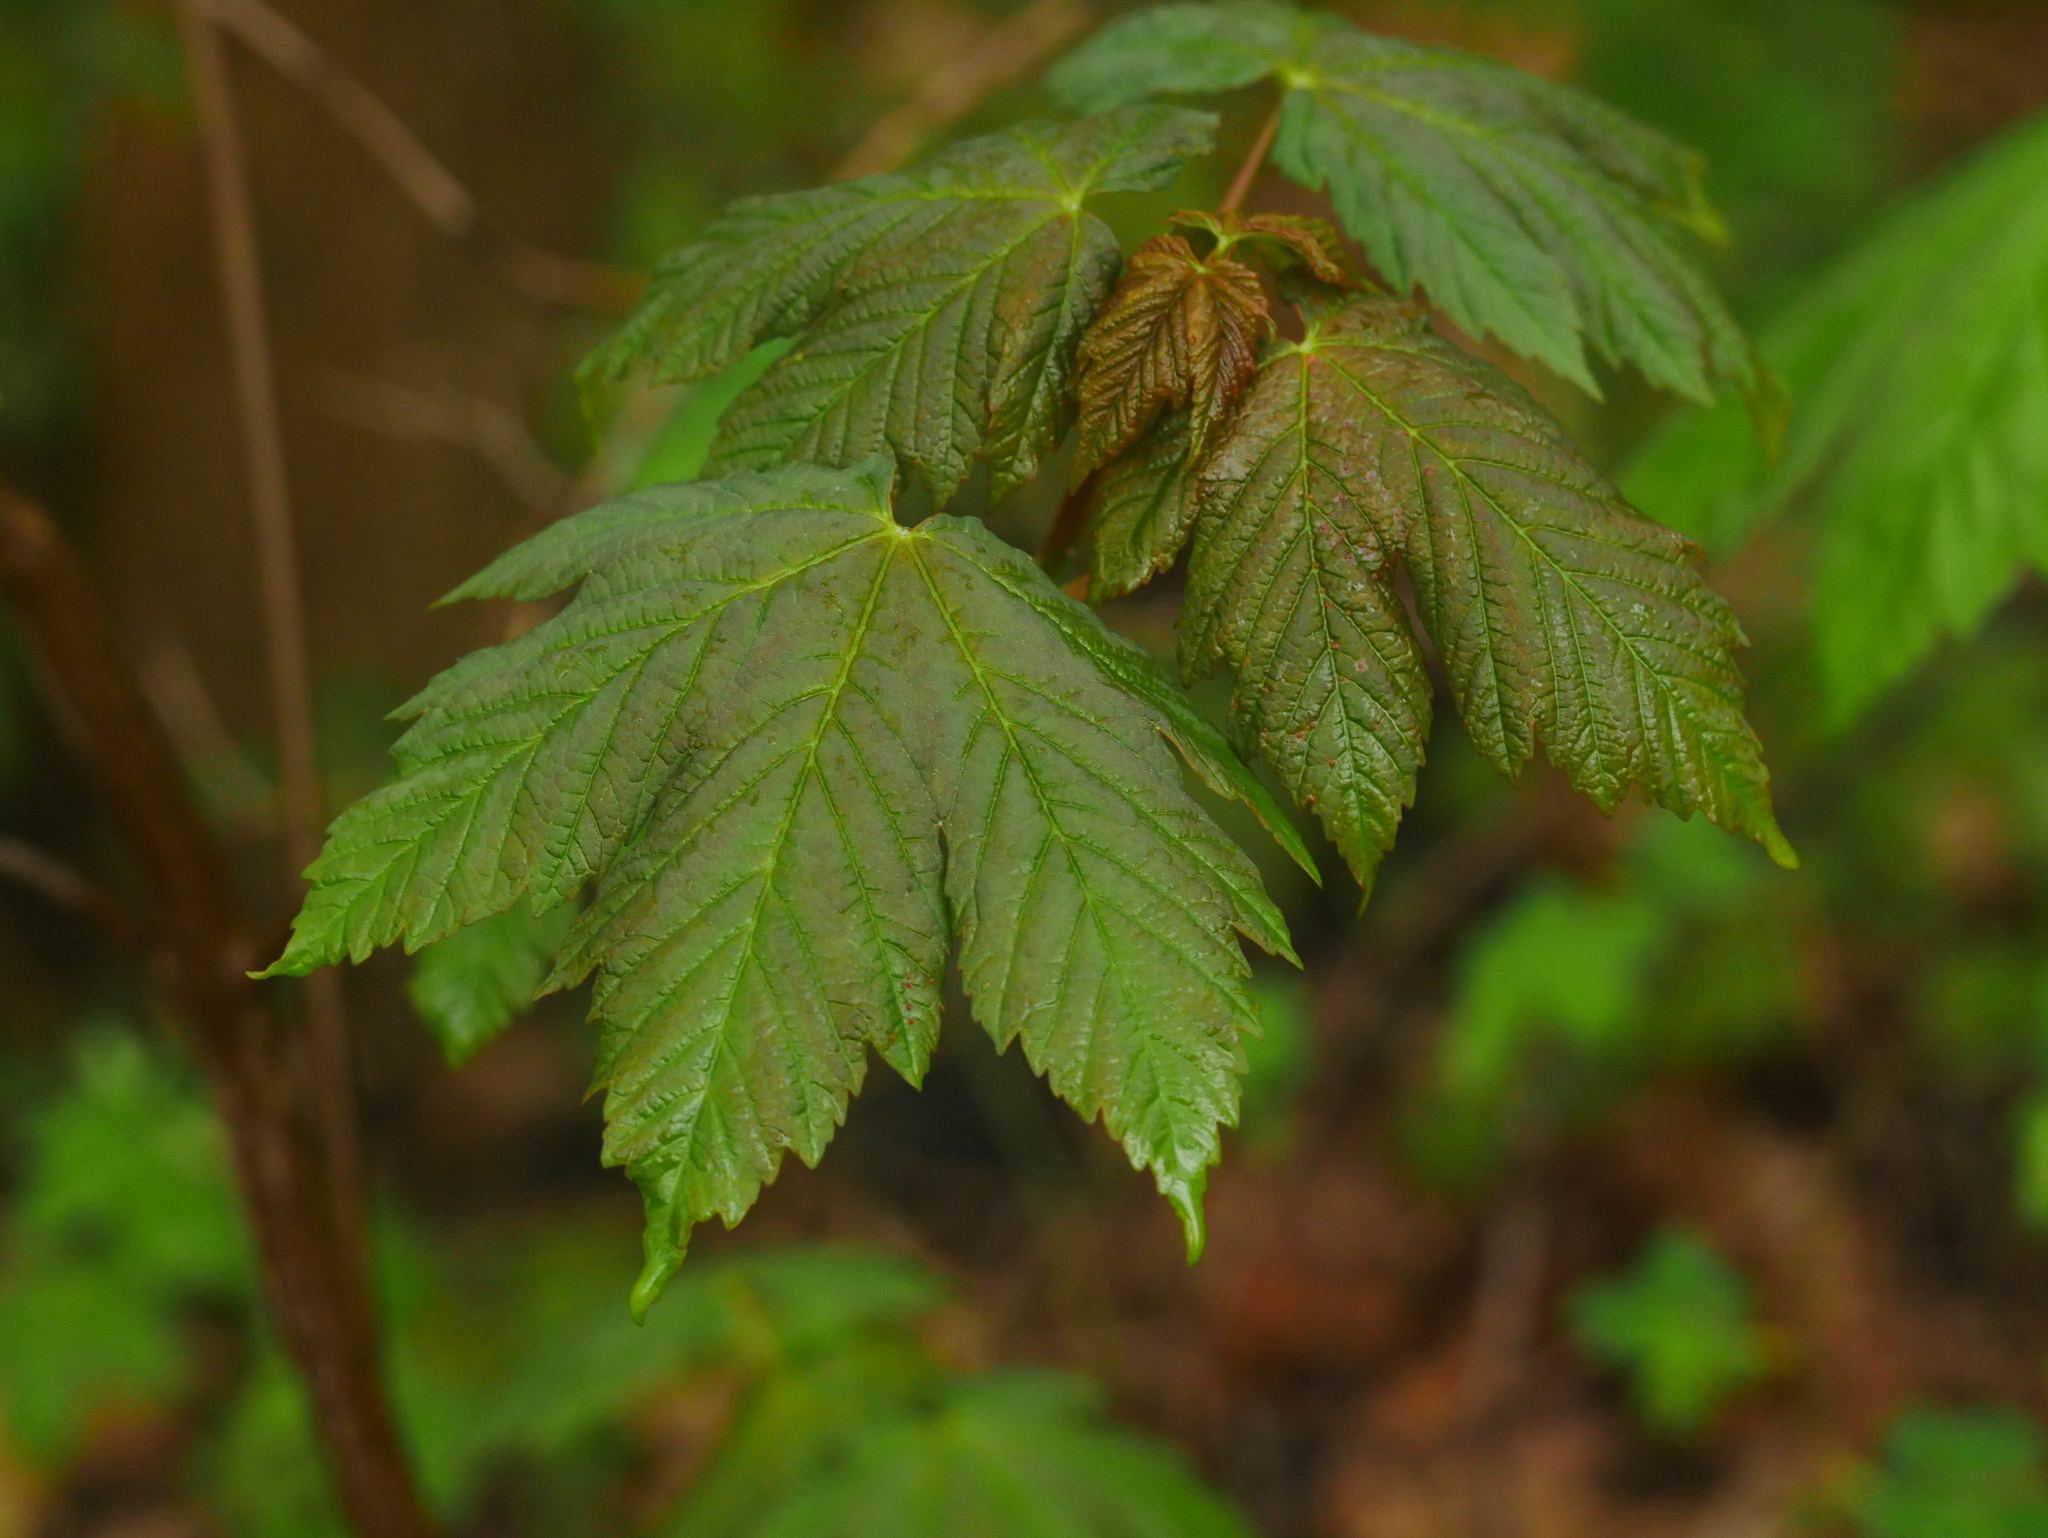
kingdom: Plantae
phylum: Tracheophyta
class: Magnoliopsida
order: Sapindales
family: Sapindaceae
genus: Acer
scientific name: Acer pseudoplatanus
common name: Sycamore
